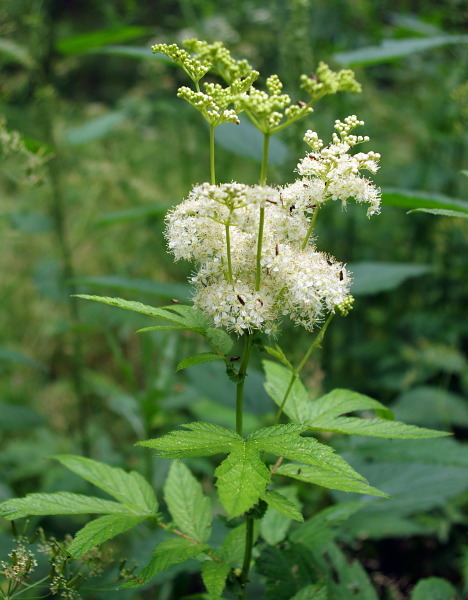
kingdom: Plantae
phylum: Tracheophyta
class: Magnoliopsida
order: Rosales
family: Rosaceae
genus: Filipendula
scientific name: Filipendula ulmaria
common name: Meadowsweet
